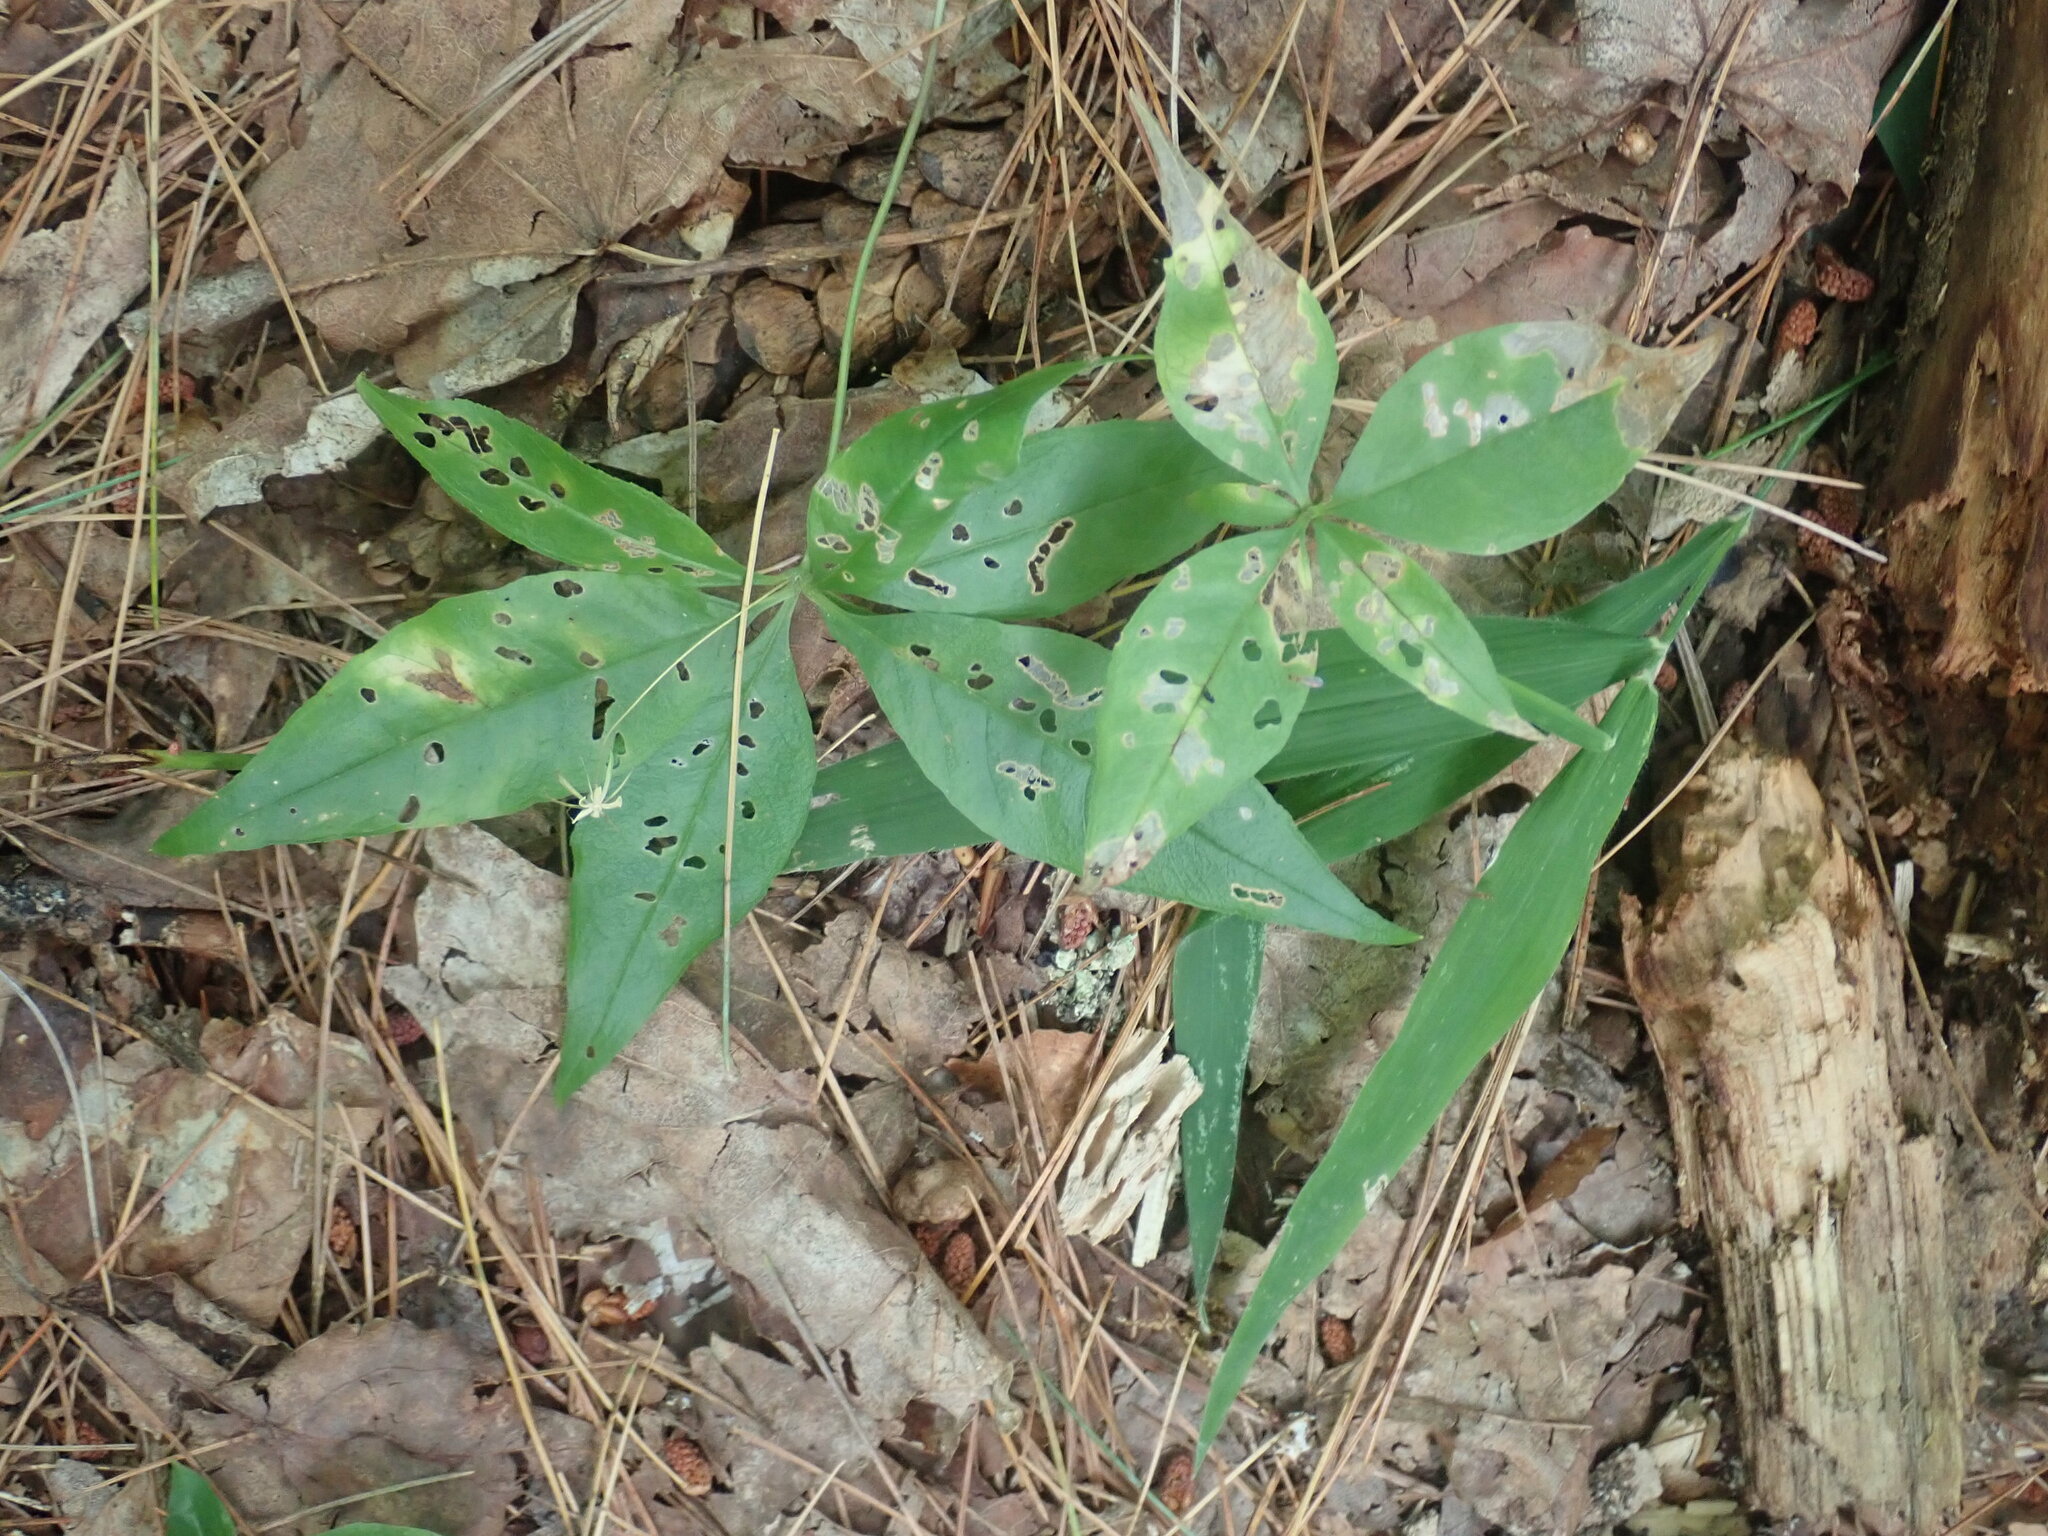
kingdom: Plantae
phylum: Tracheophyta
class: Magnoliopsida
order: Ericales
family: Primulaceae
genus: Lysimachia
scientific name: Lysimachia borealis
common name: American starflower
